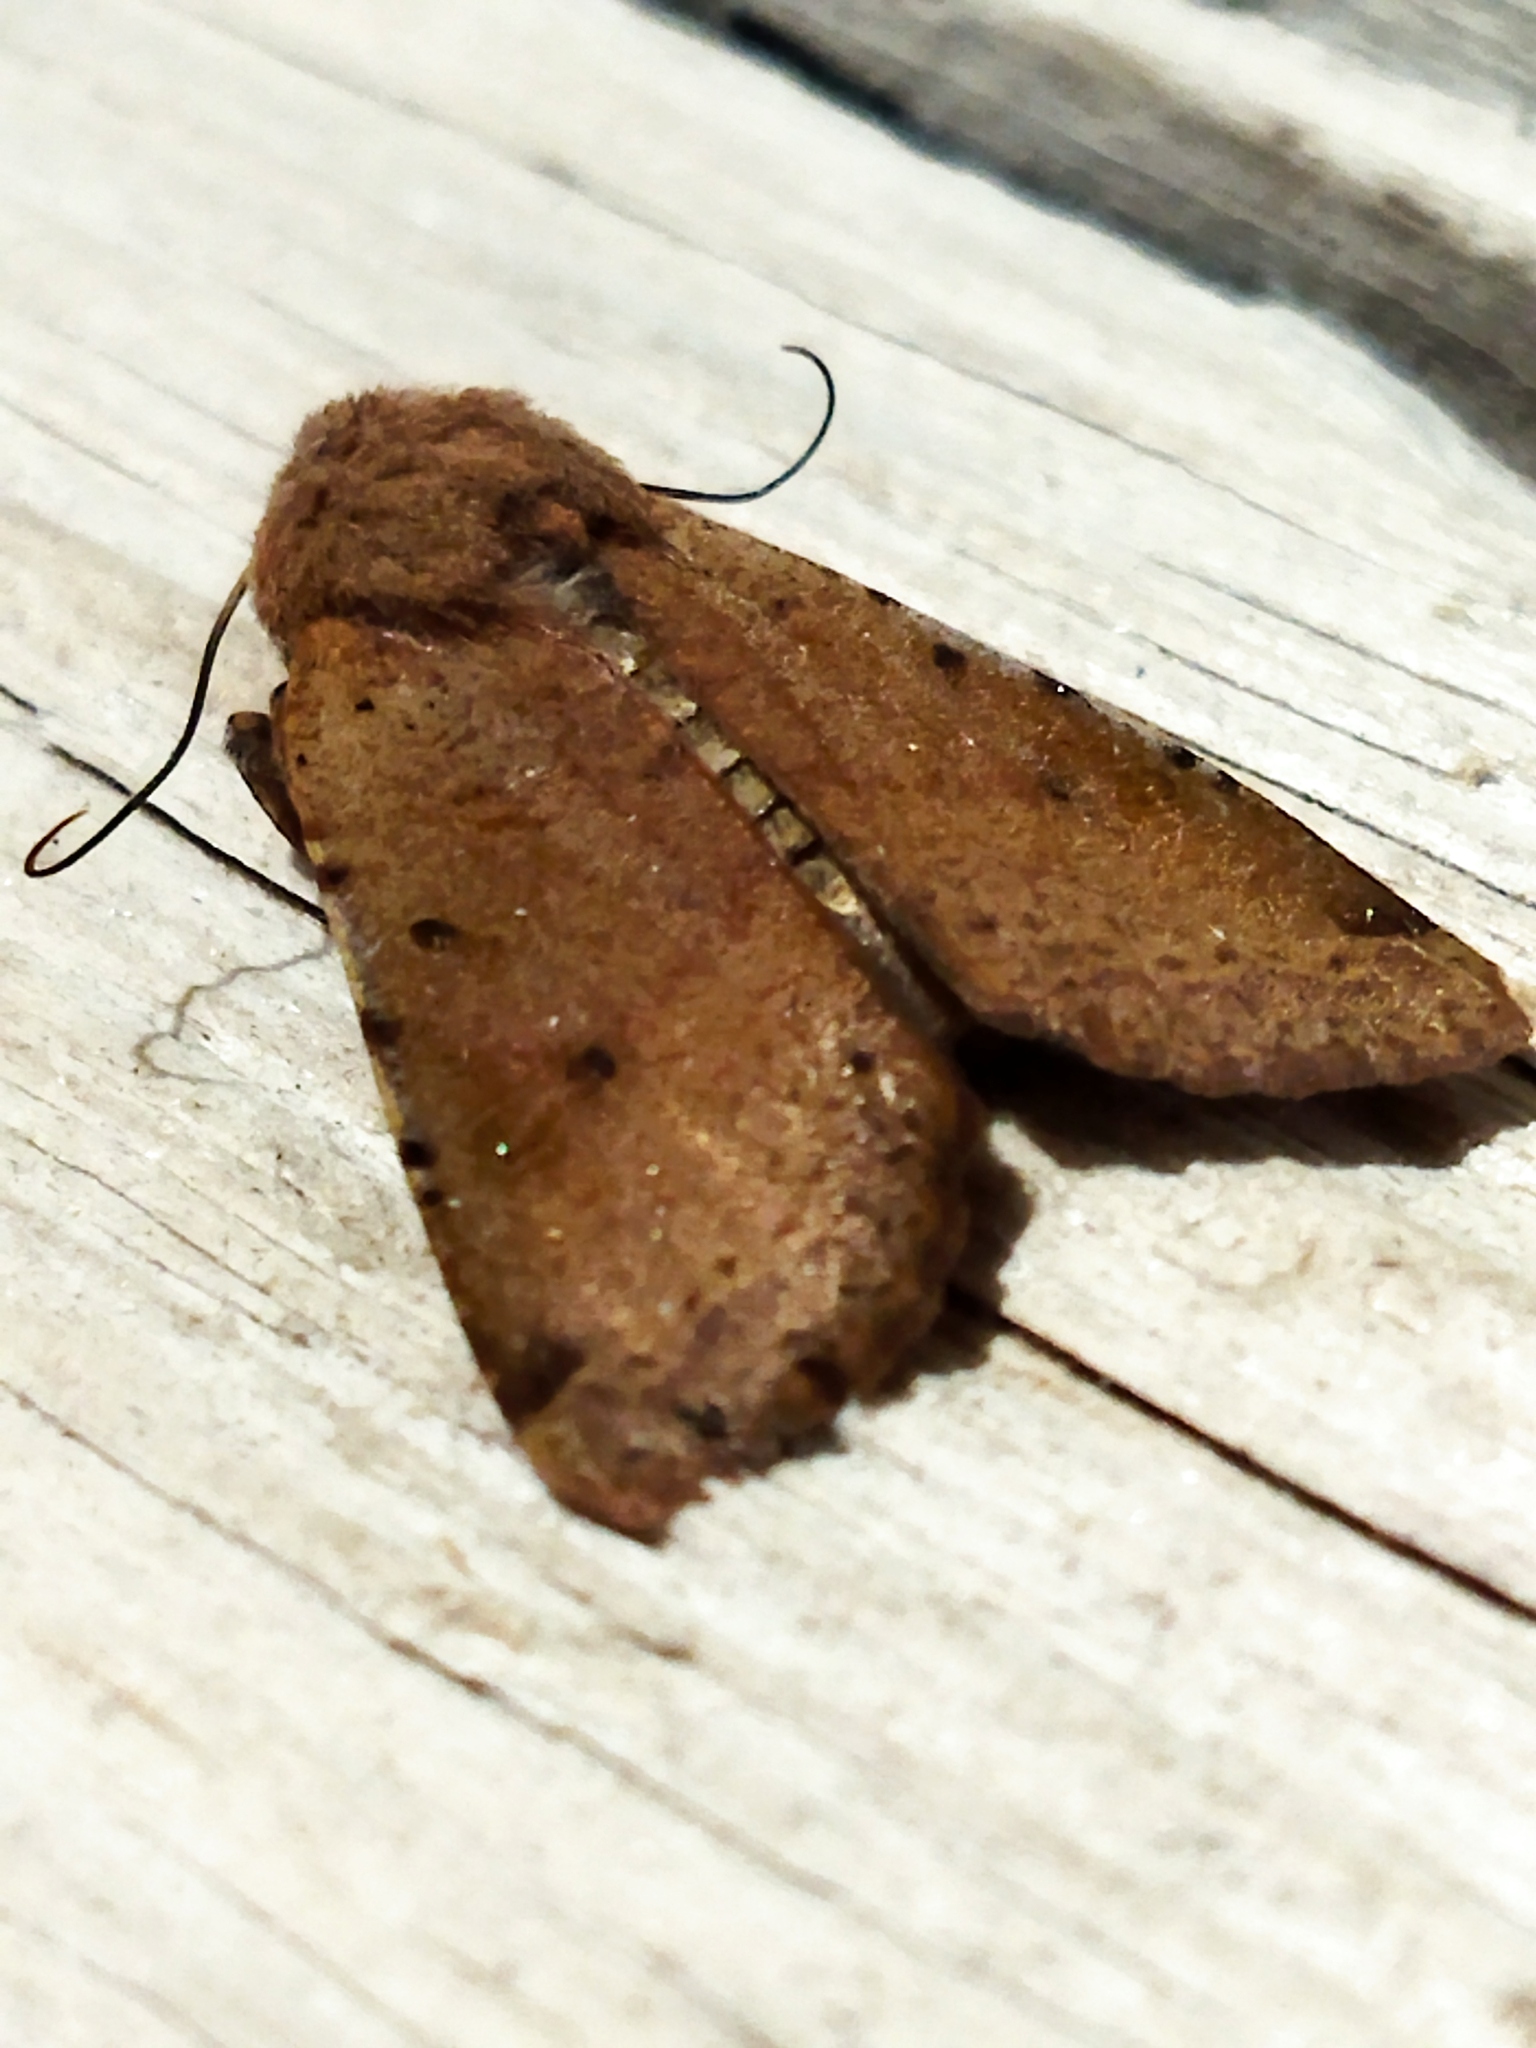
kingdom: Animalia
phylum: Arthropoda
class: Insecta
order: Lepidoptera
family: Noctuidae
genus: Agrochola
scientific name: Agrochola lychnidis
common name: Beaded chestnut
